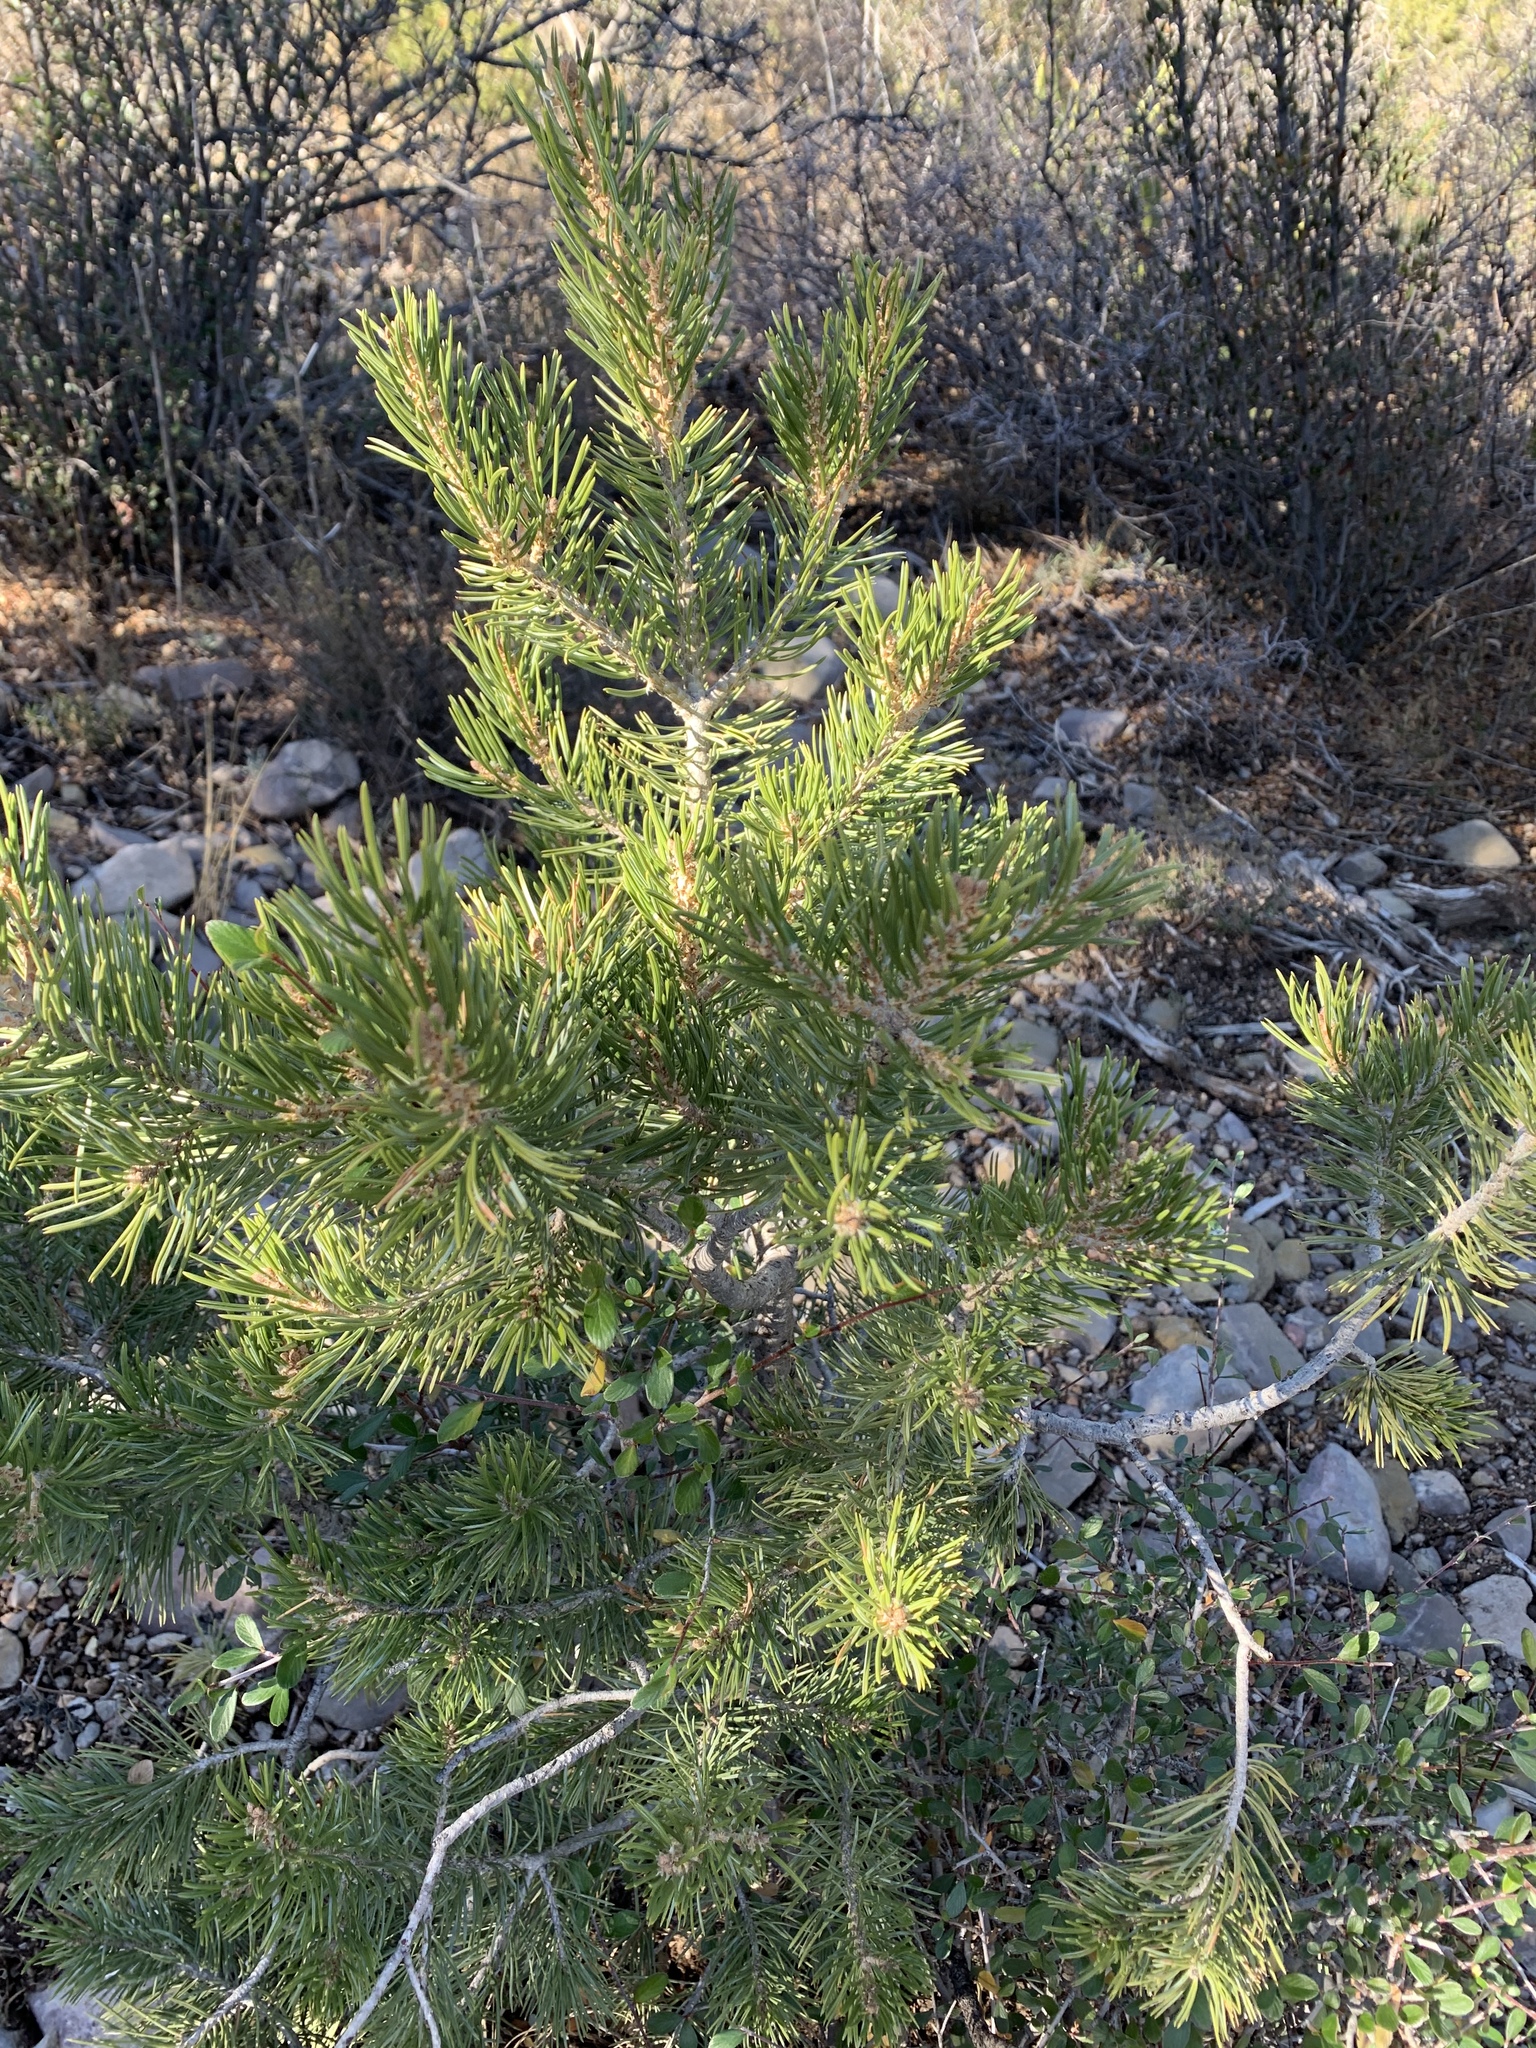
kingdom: Plantae
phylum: Tracheophyta
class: Pinopsida
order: Pinales
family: Pinaceae
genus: Pinus
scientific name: Pinus edulis
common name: Colorado pinyon
